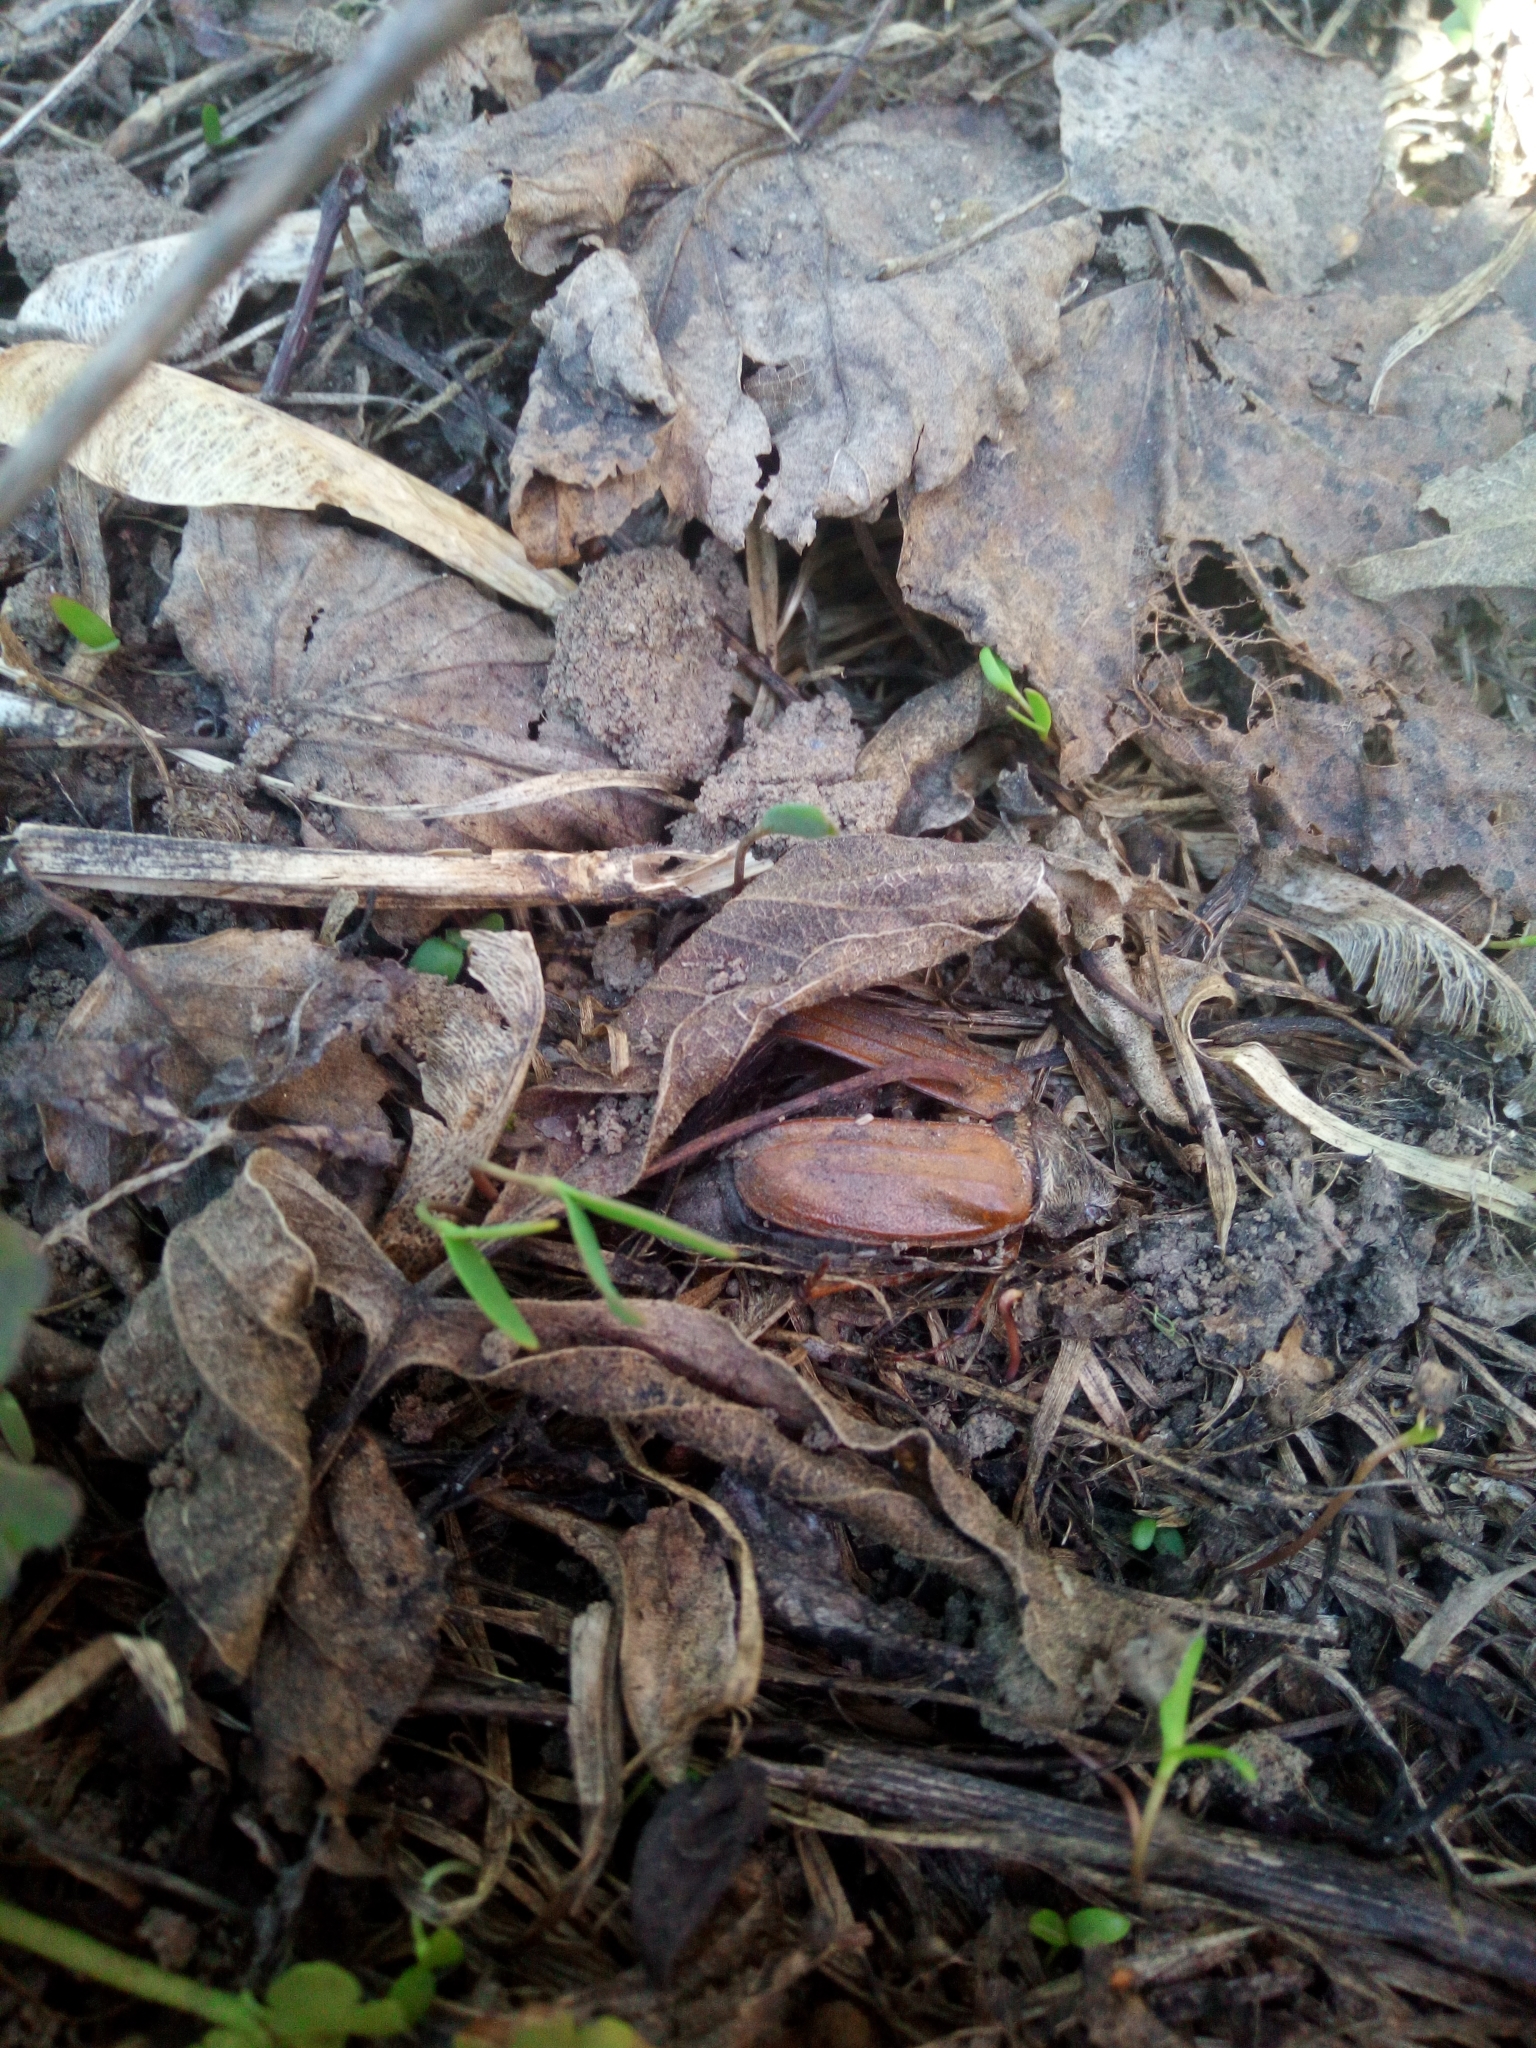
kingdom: Animalia
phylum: Arthropoda
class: Insecta
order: Coleoptera
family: Scarabaeidae
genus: Melolontha
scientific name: Melolontha melolontha
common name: Cockchafer maybeetle
